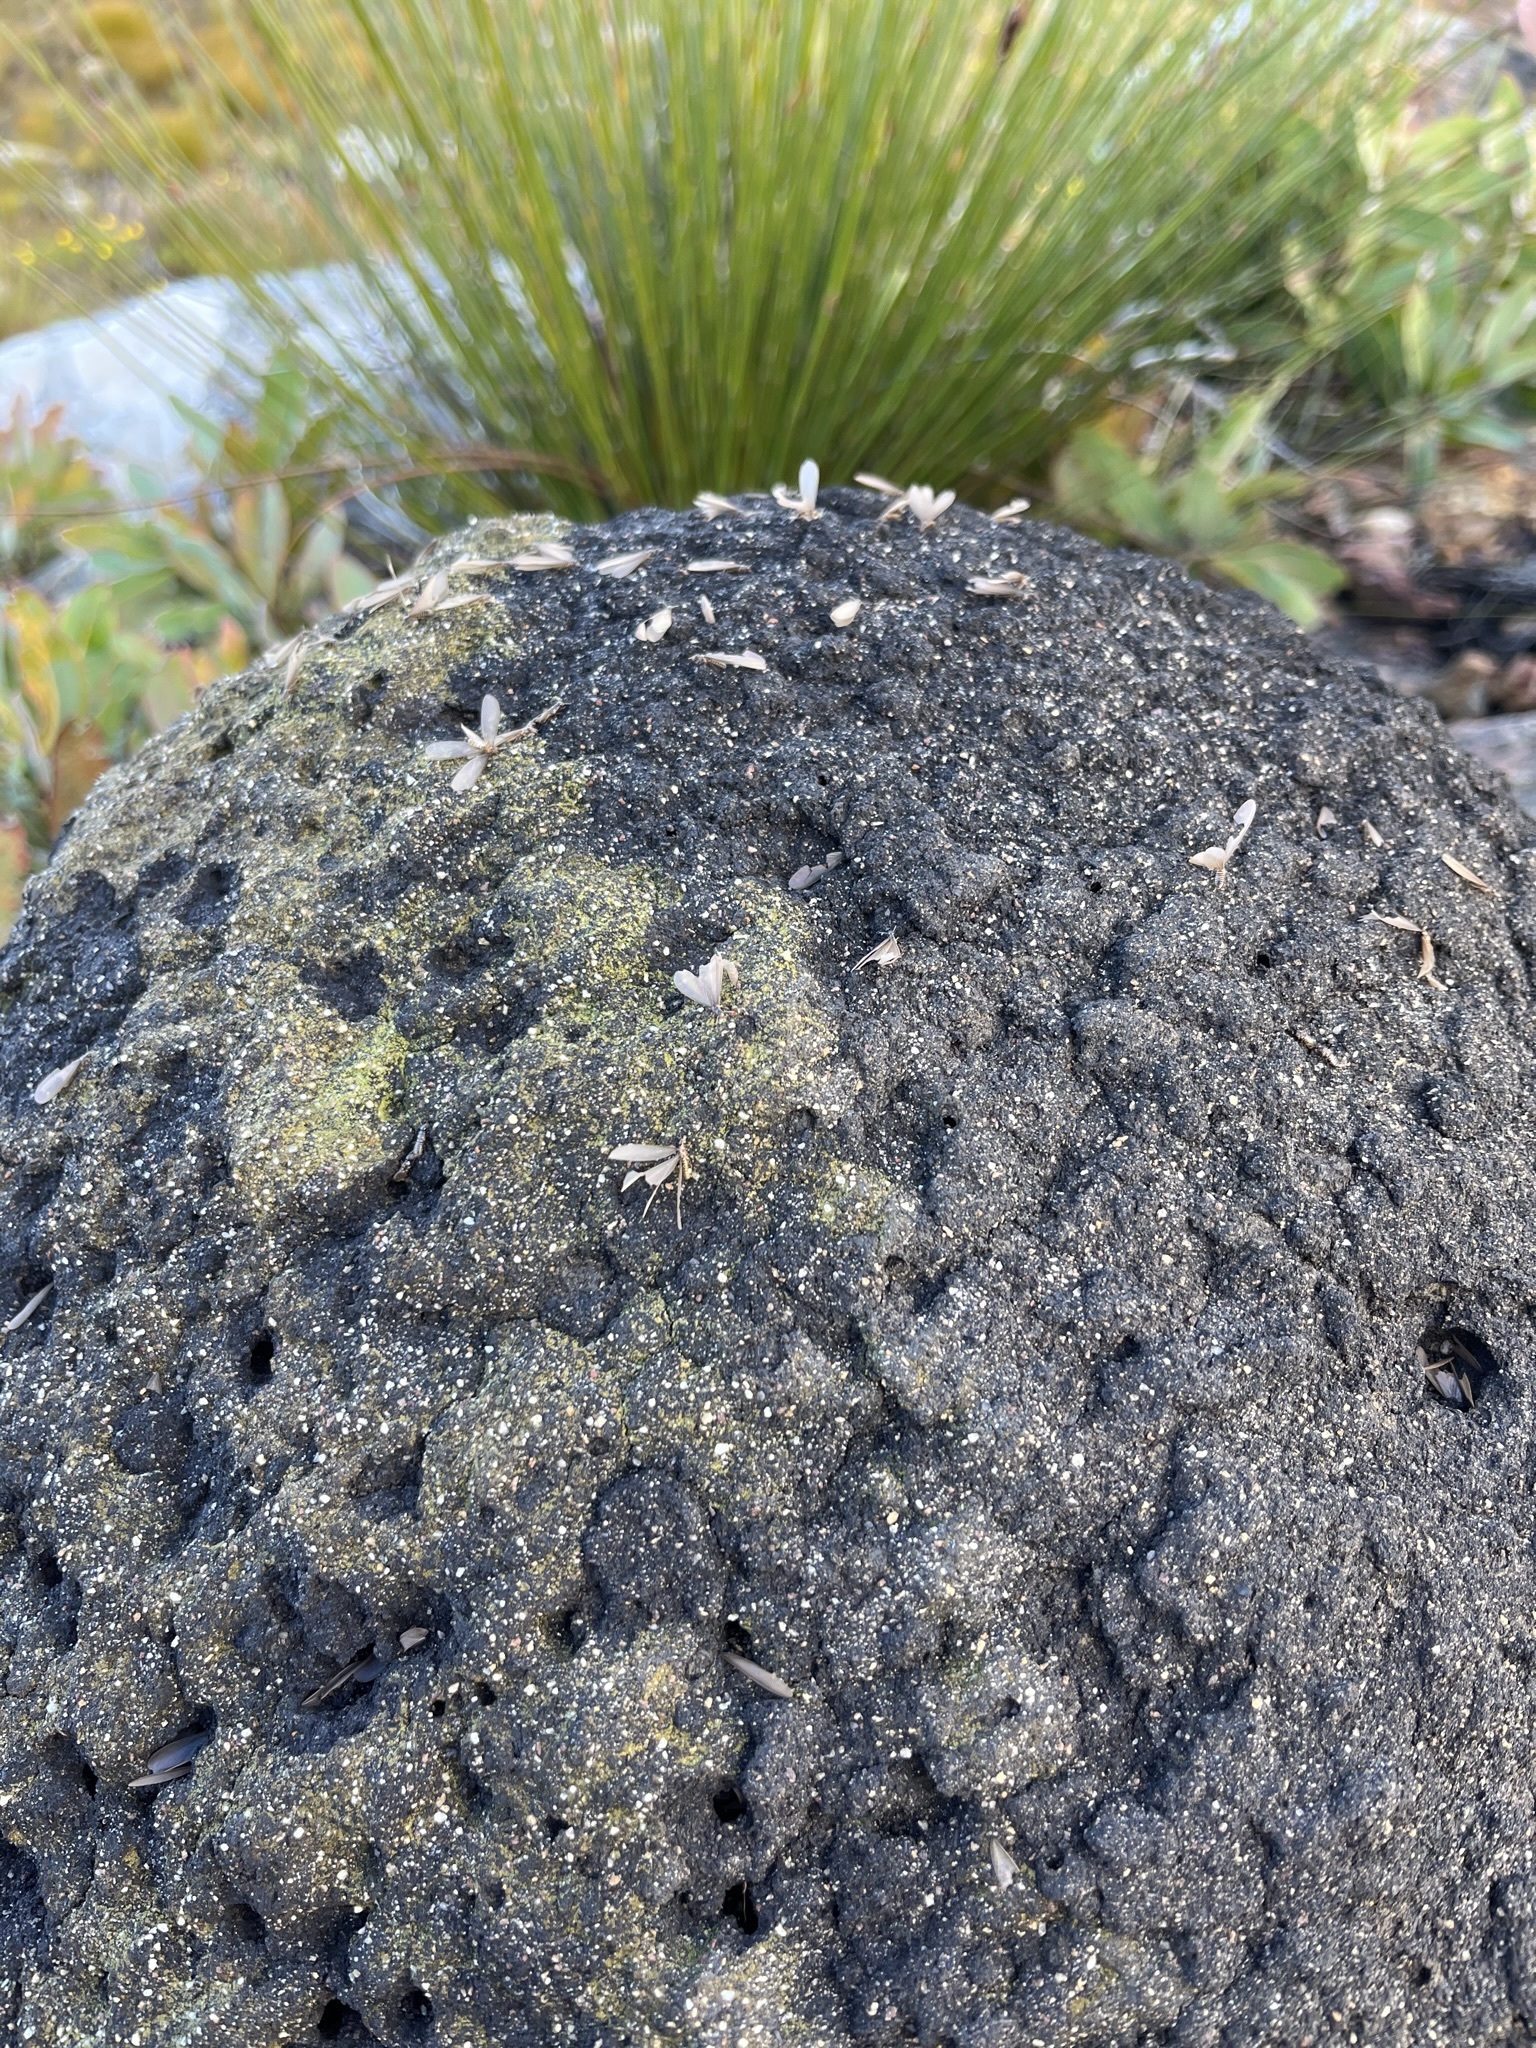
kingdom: Animalia
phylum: Arthropoda
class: Insecta
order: Blattodea
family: Termitidae
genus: Amitermes
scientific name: Amitermes hastatus
